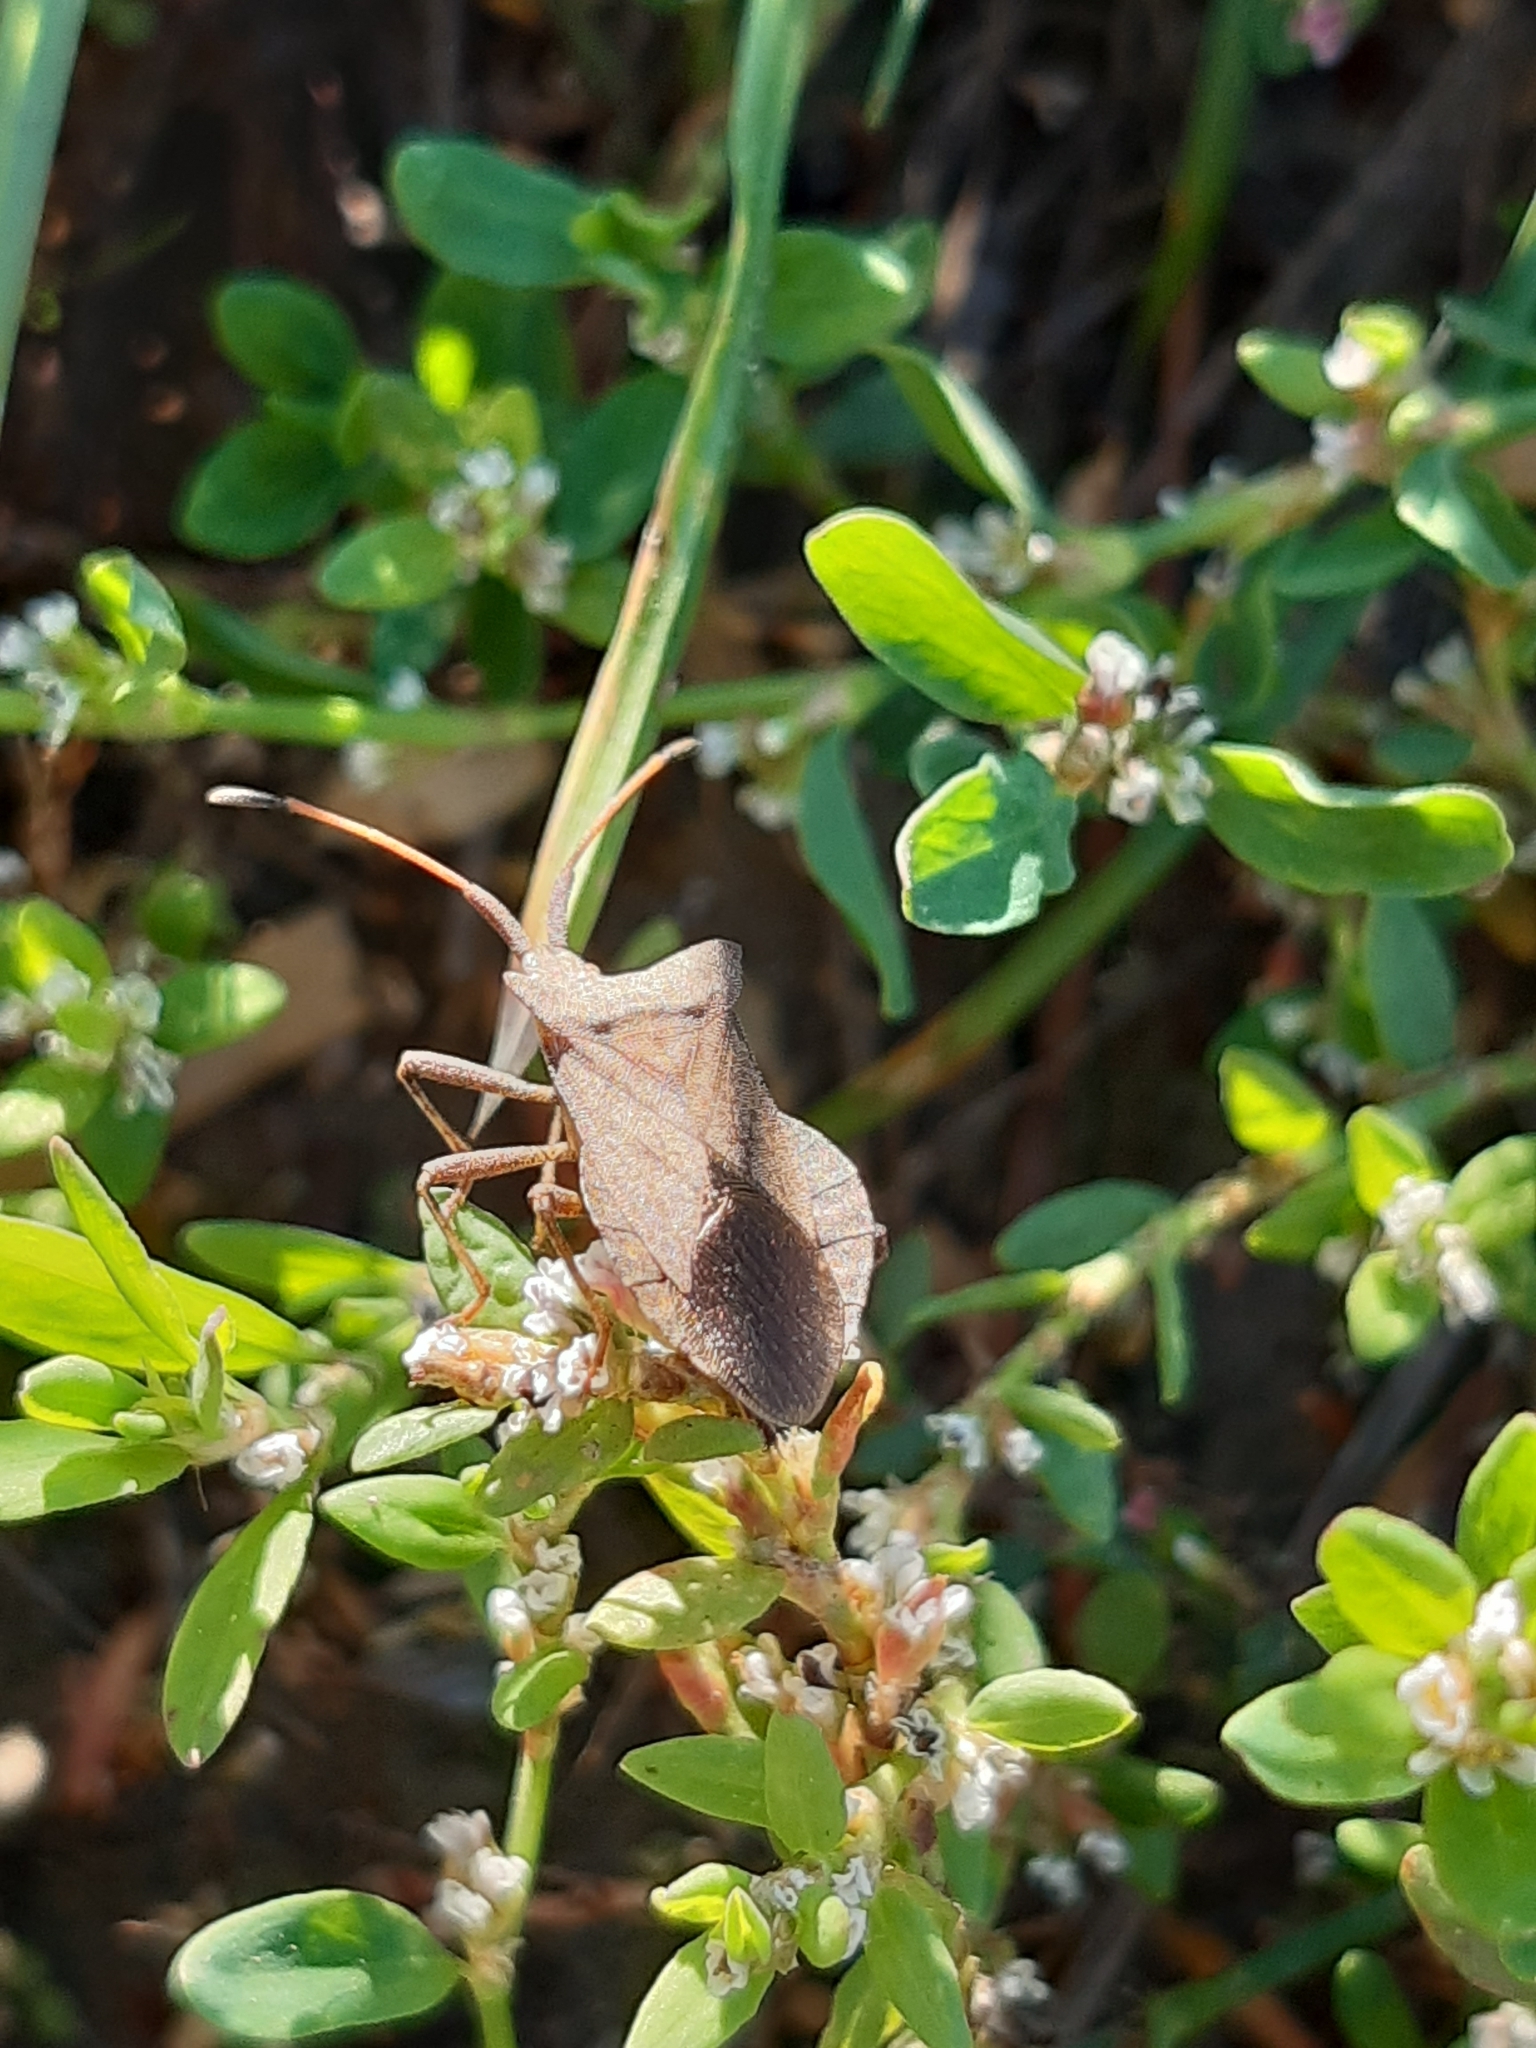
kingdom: Animalia
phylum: Arthropoda
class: Insecta
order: Hemiptera
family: Coreidae
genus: Coreus
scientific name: Coreus marginatus
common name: Dock bug
